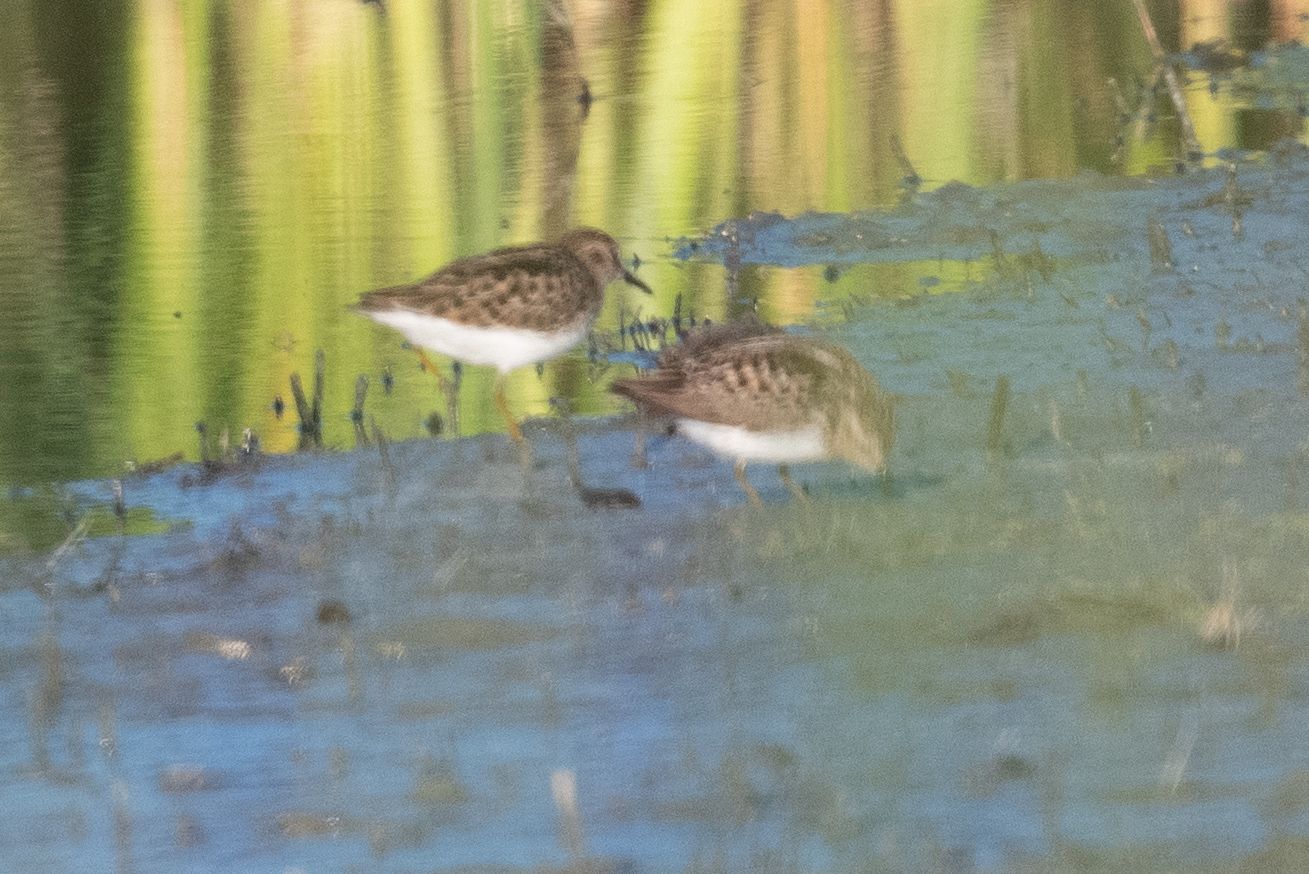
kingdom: Animalia
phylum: Chordata
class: Aves
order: Charadriiformes
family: Scolopacidae
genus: Calidris
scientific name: Calidris minutilla
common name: Least sandpiper
